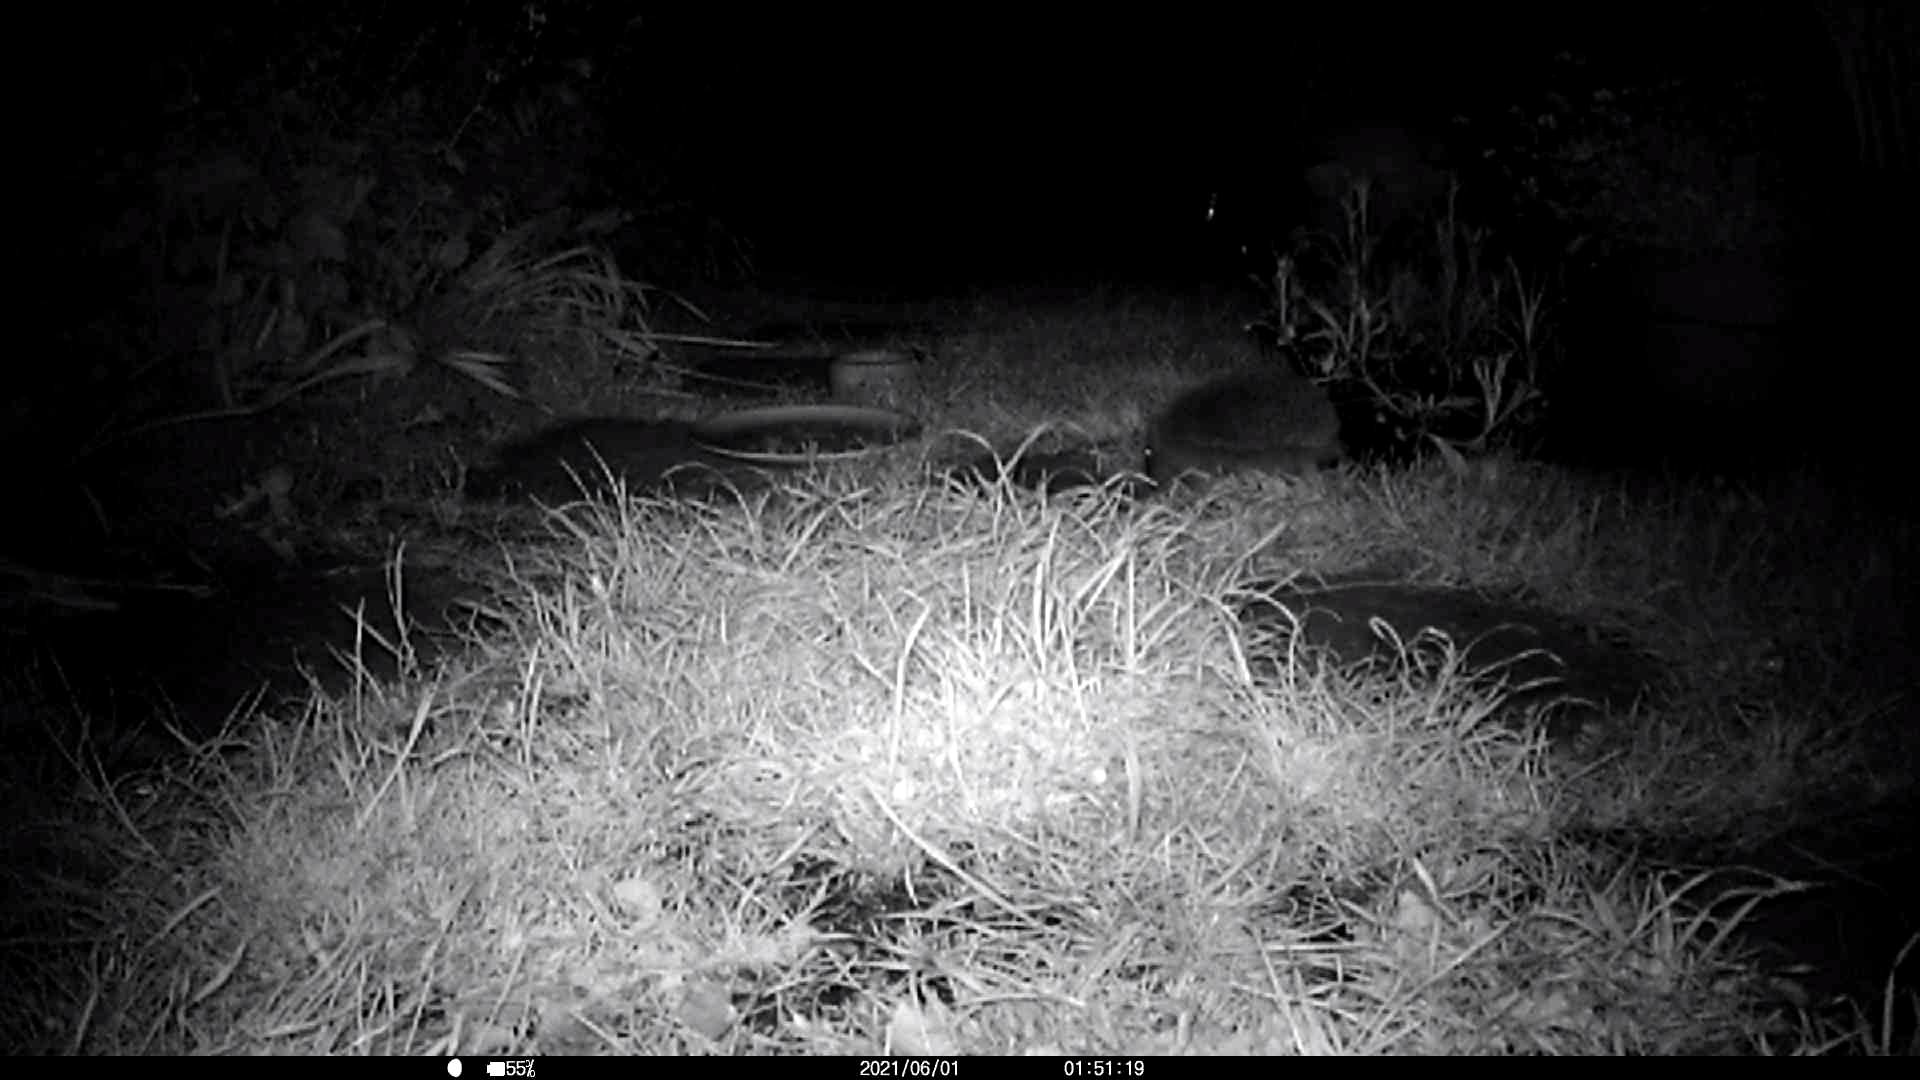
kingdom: Animalia
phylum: Chordata
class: Mammalia
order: Erinaceomorpha
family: Erinaceidae
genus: Erinaceus
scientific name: Erinaceus europaeus
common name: West european hedgehog
